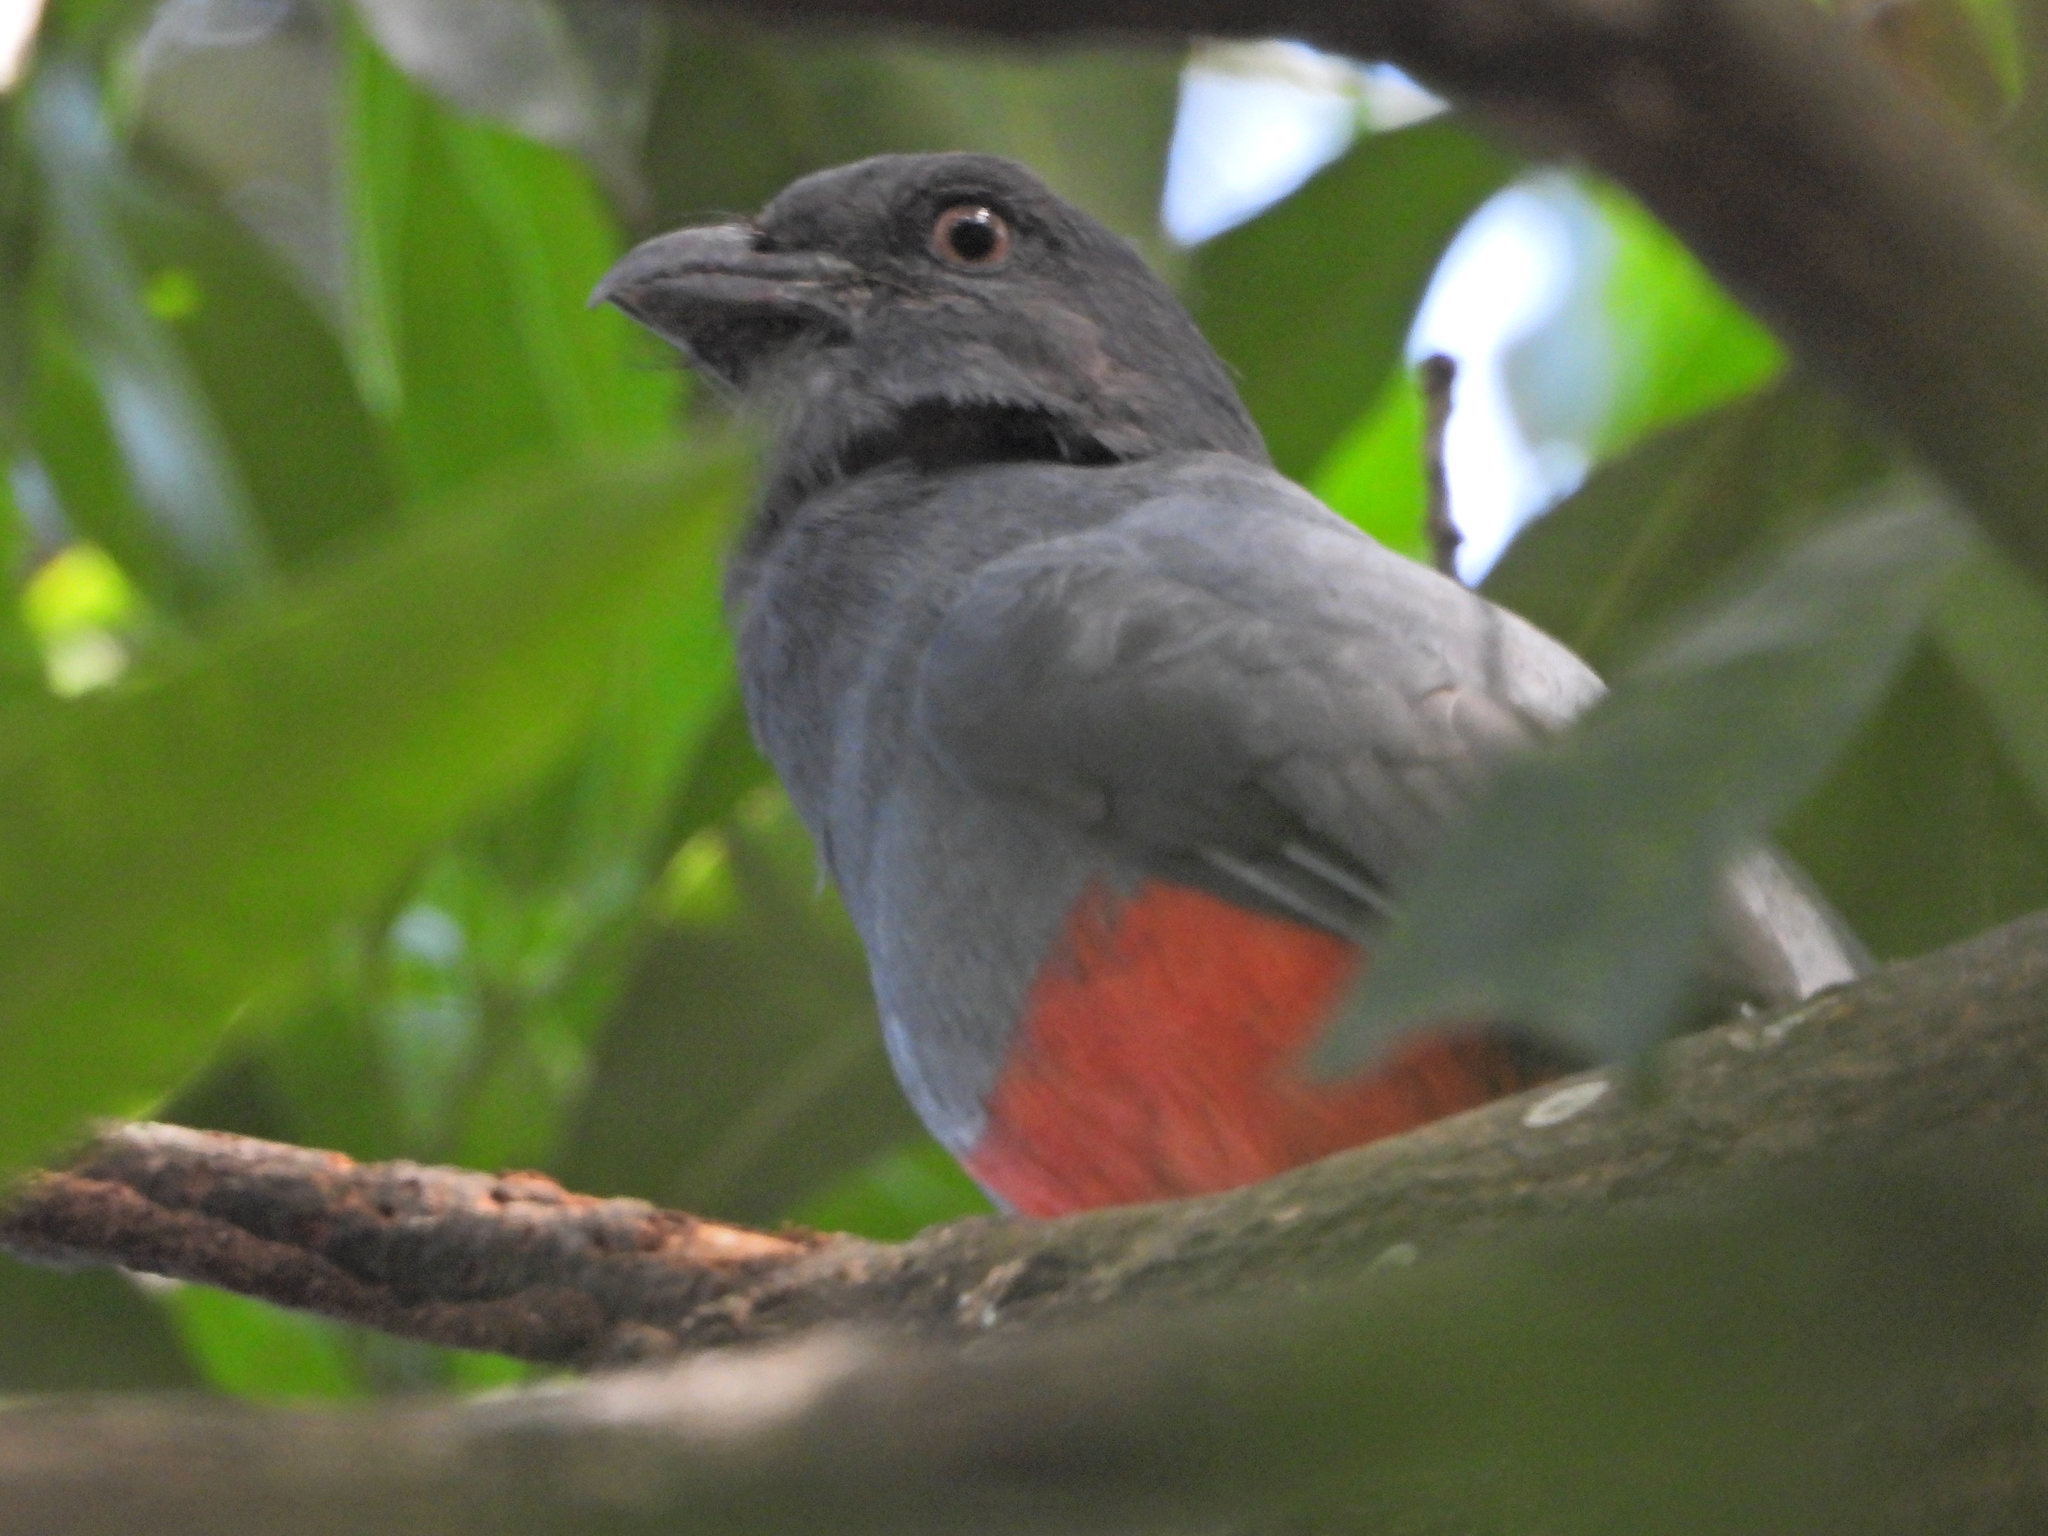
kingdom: Animalia
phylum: Chordata
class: Aves
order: Trogoniformes
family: Trogonidae
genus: Trogon
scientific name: Trogon massena
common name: Slaty-tailed trogon
